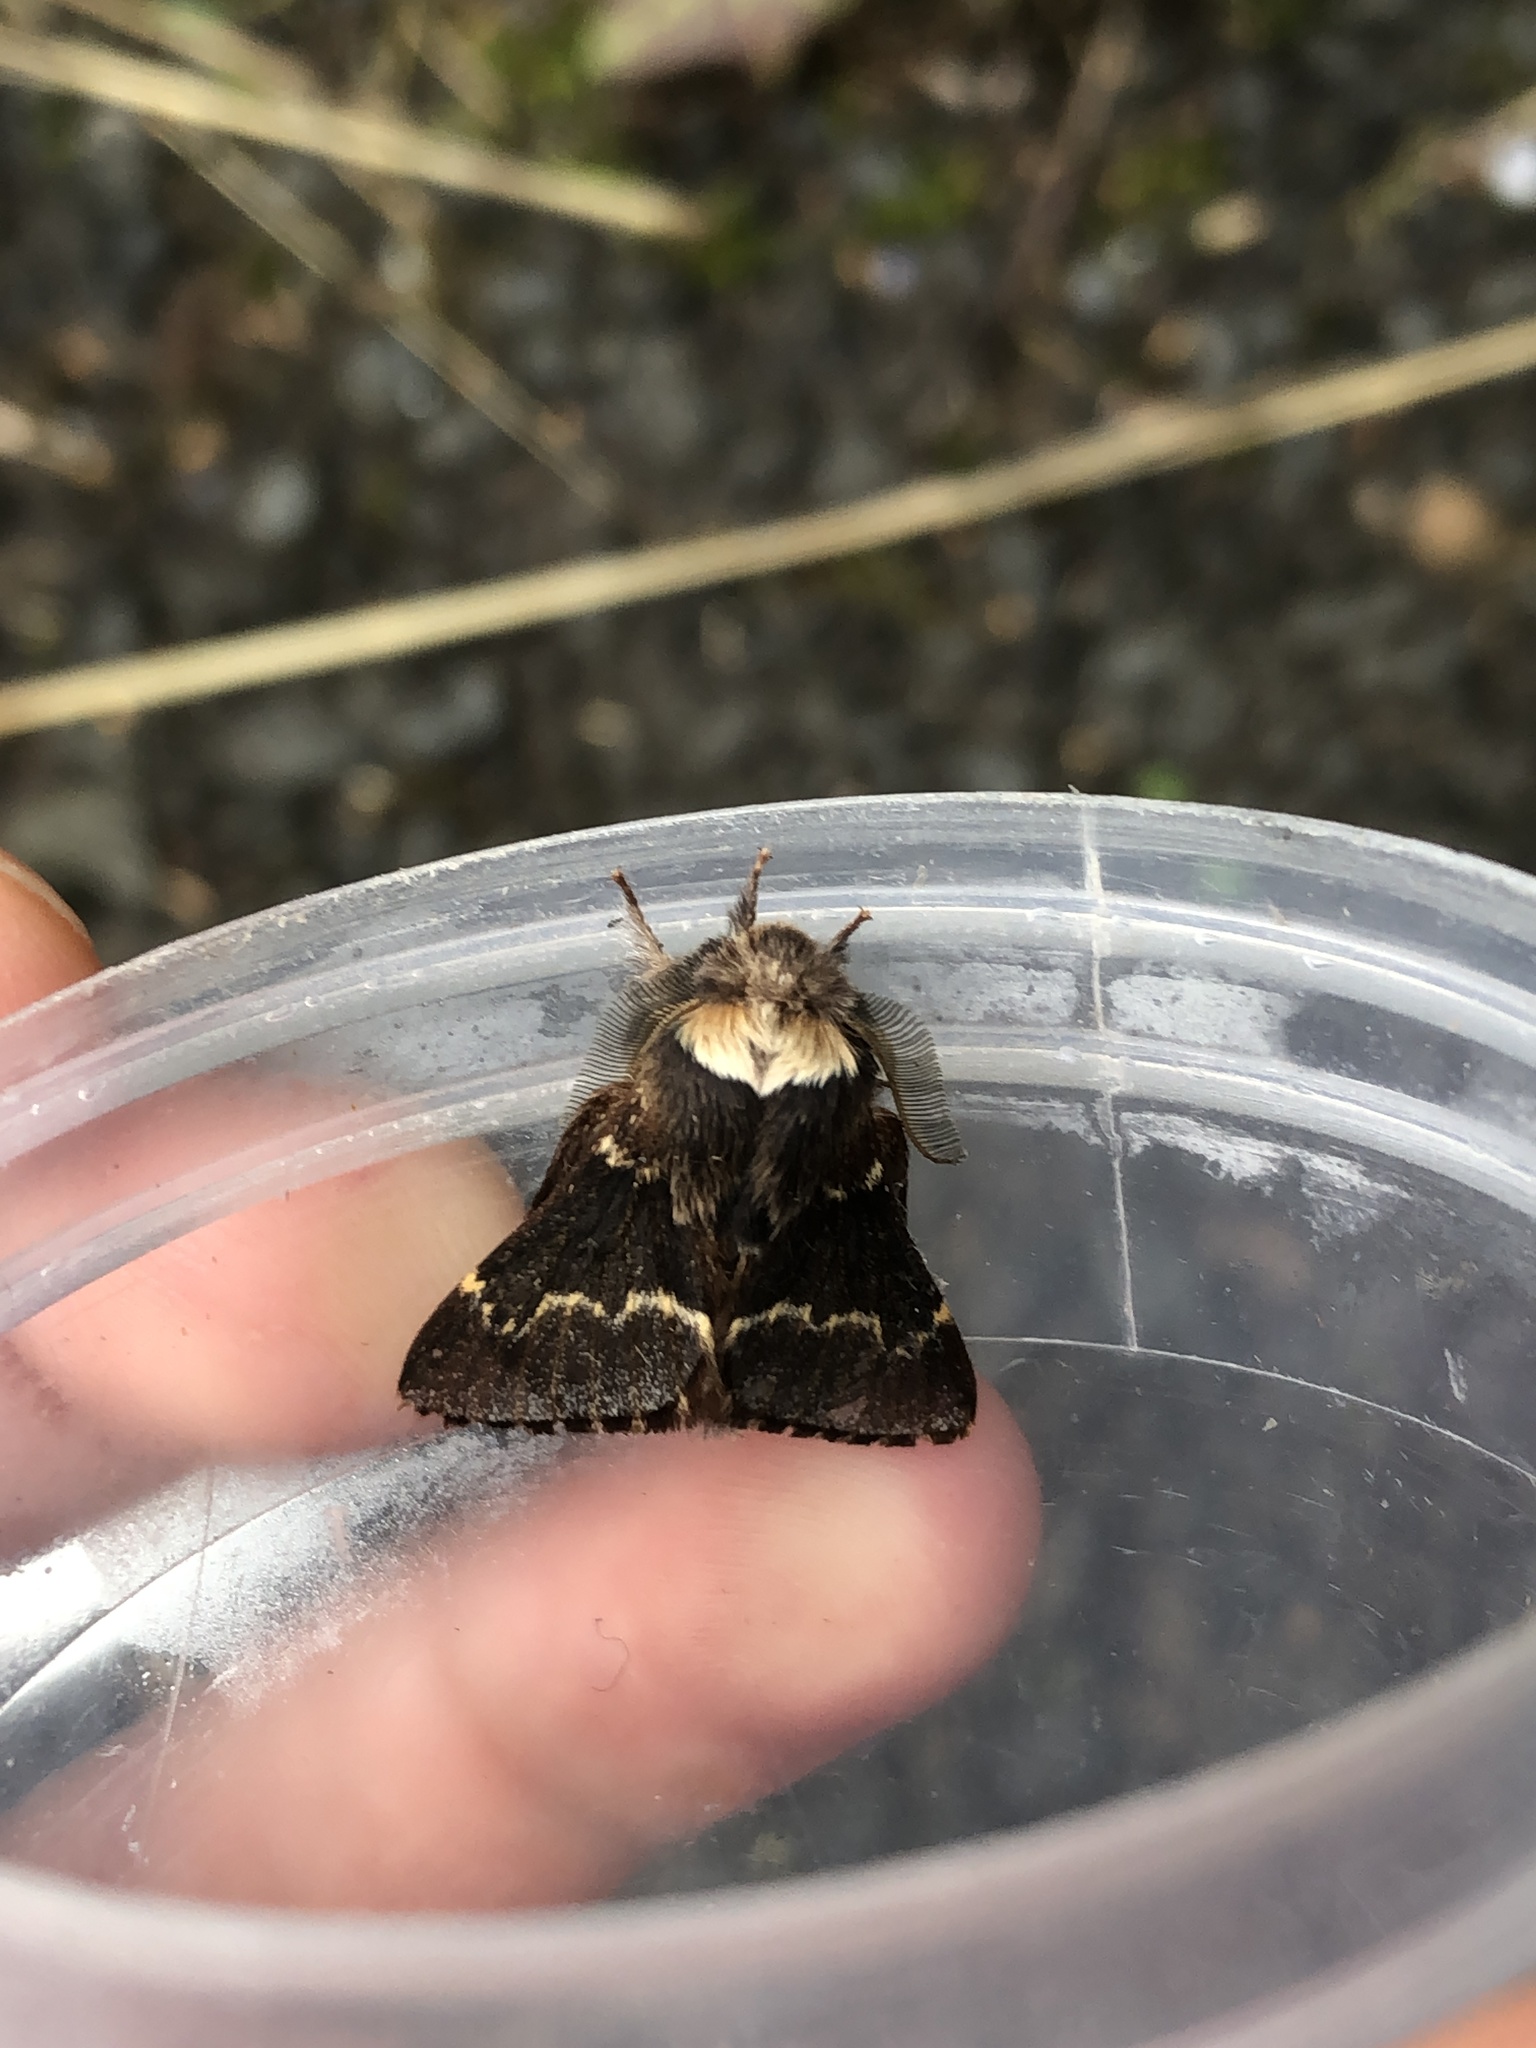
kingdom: Animalia
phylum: Arthropoda
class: Insecta
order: Lepidoptera
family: Lasiocampidae
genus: Poecilocampa
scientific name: Poecilocampa populi
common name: December moth
